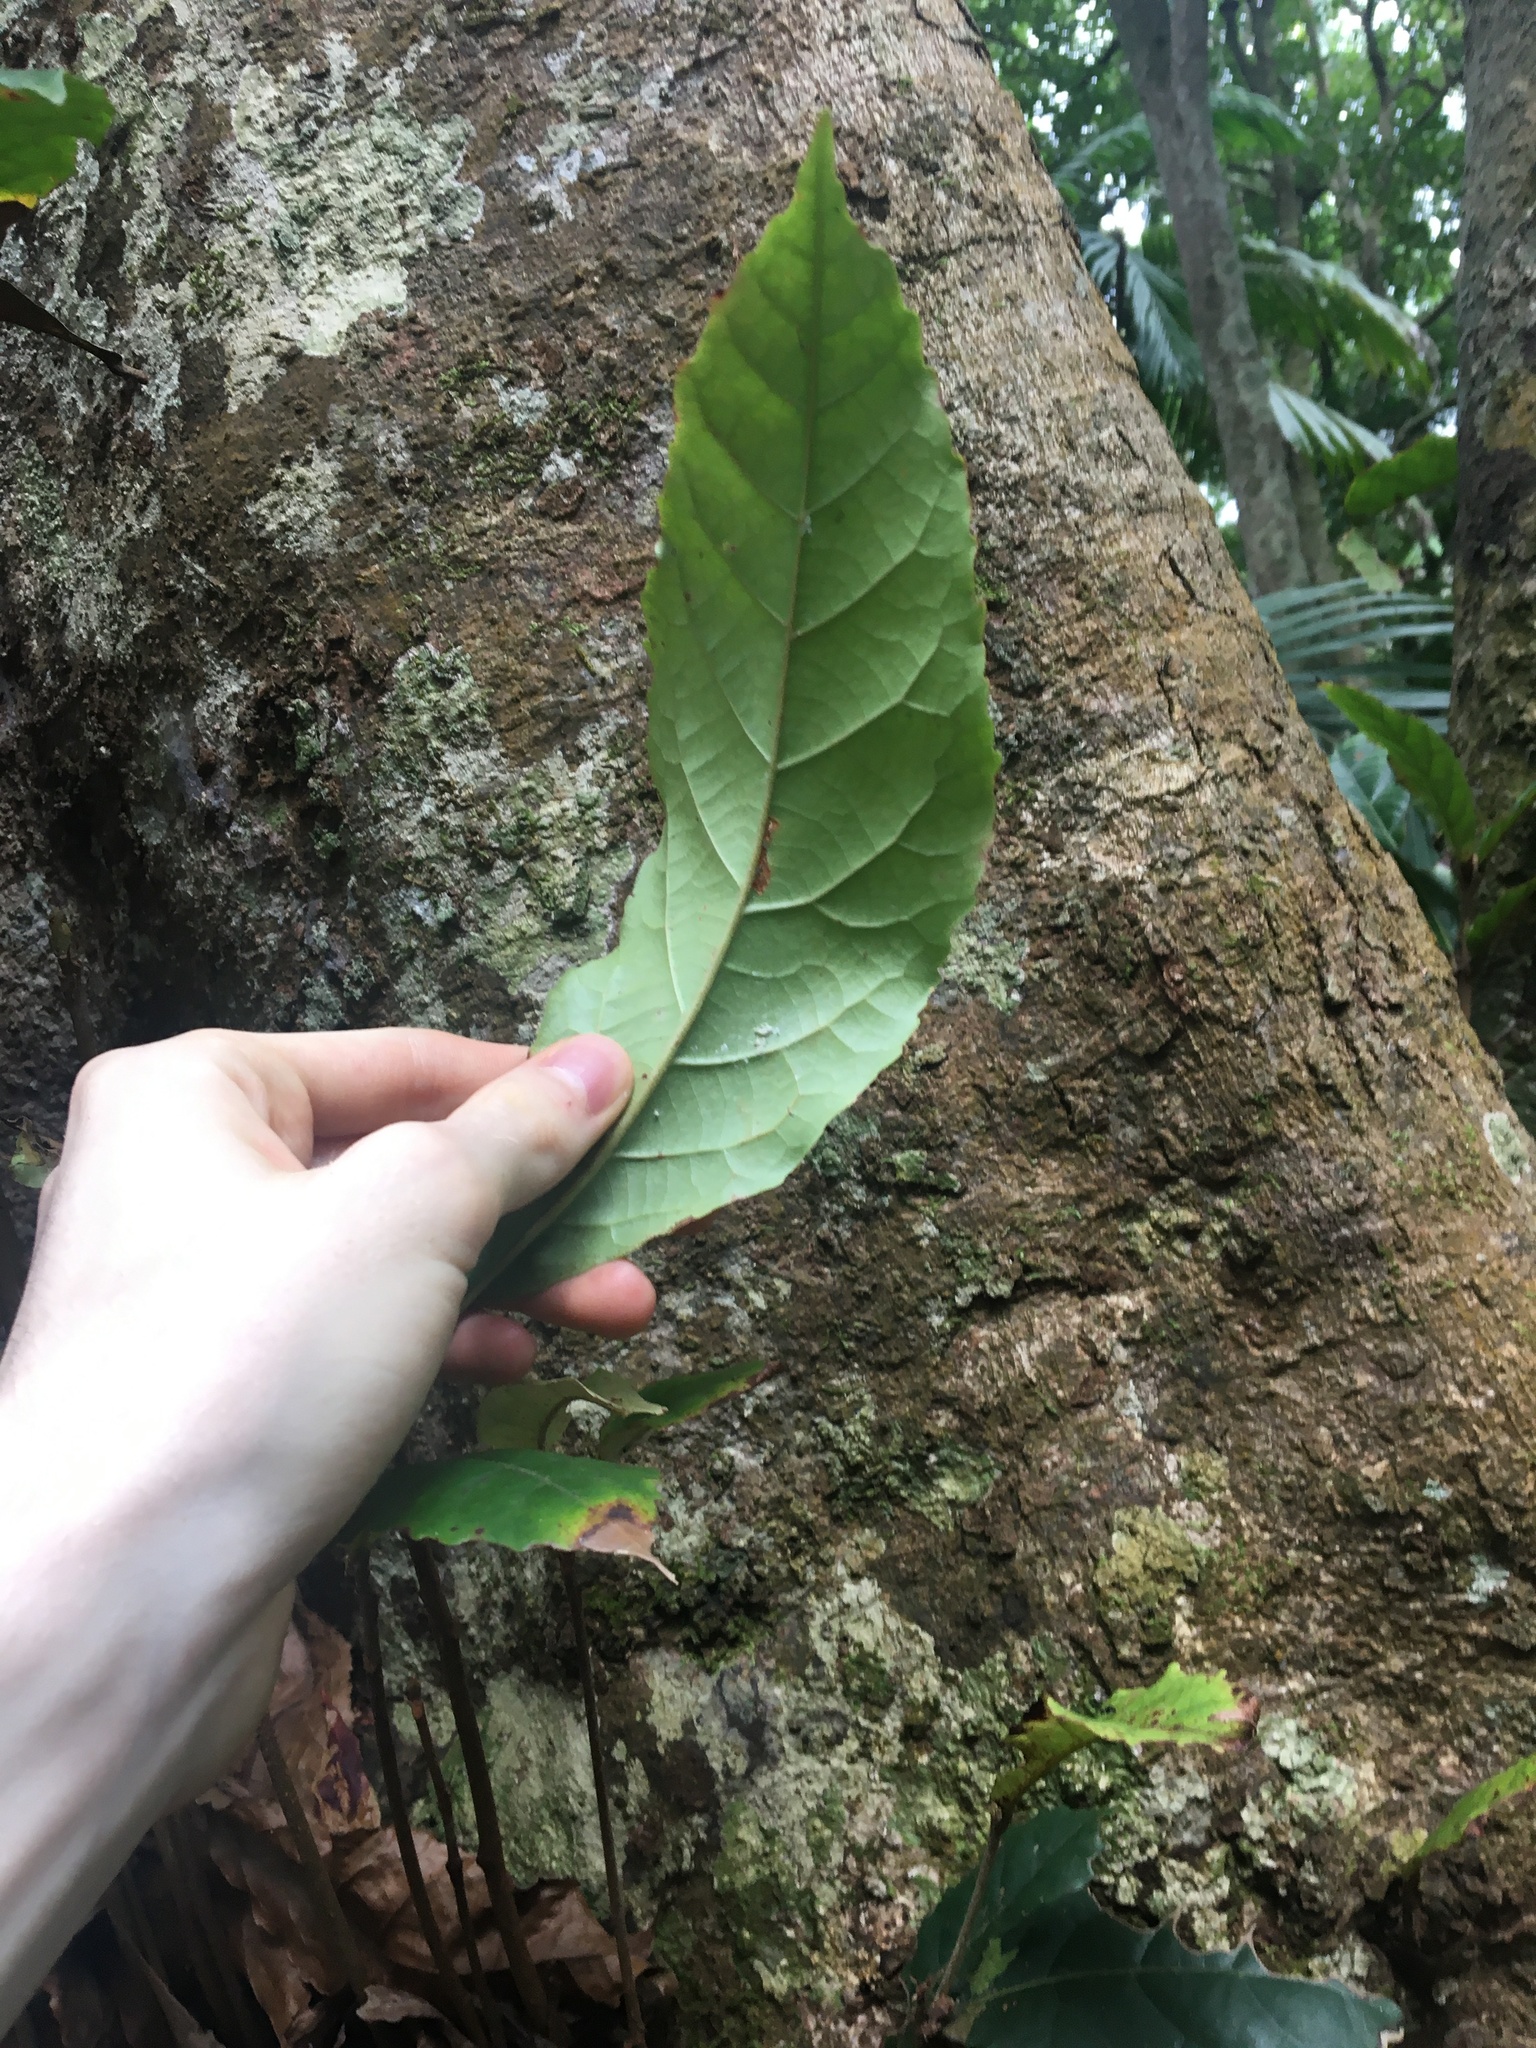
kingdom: Plantae
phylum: Tracheophyta
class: Magnoliopsida
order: Oxalidales
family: Elaeocarpaceae
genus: Sloanea
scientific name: Sloanea australis
